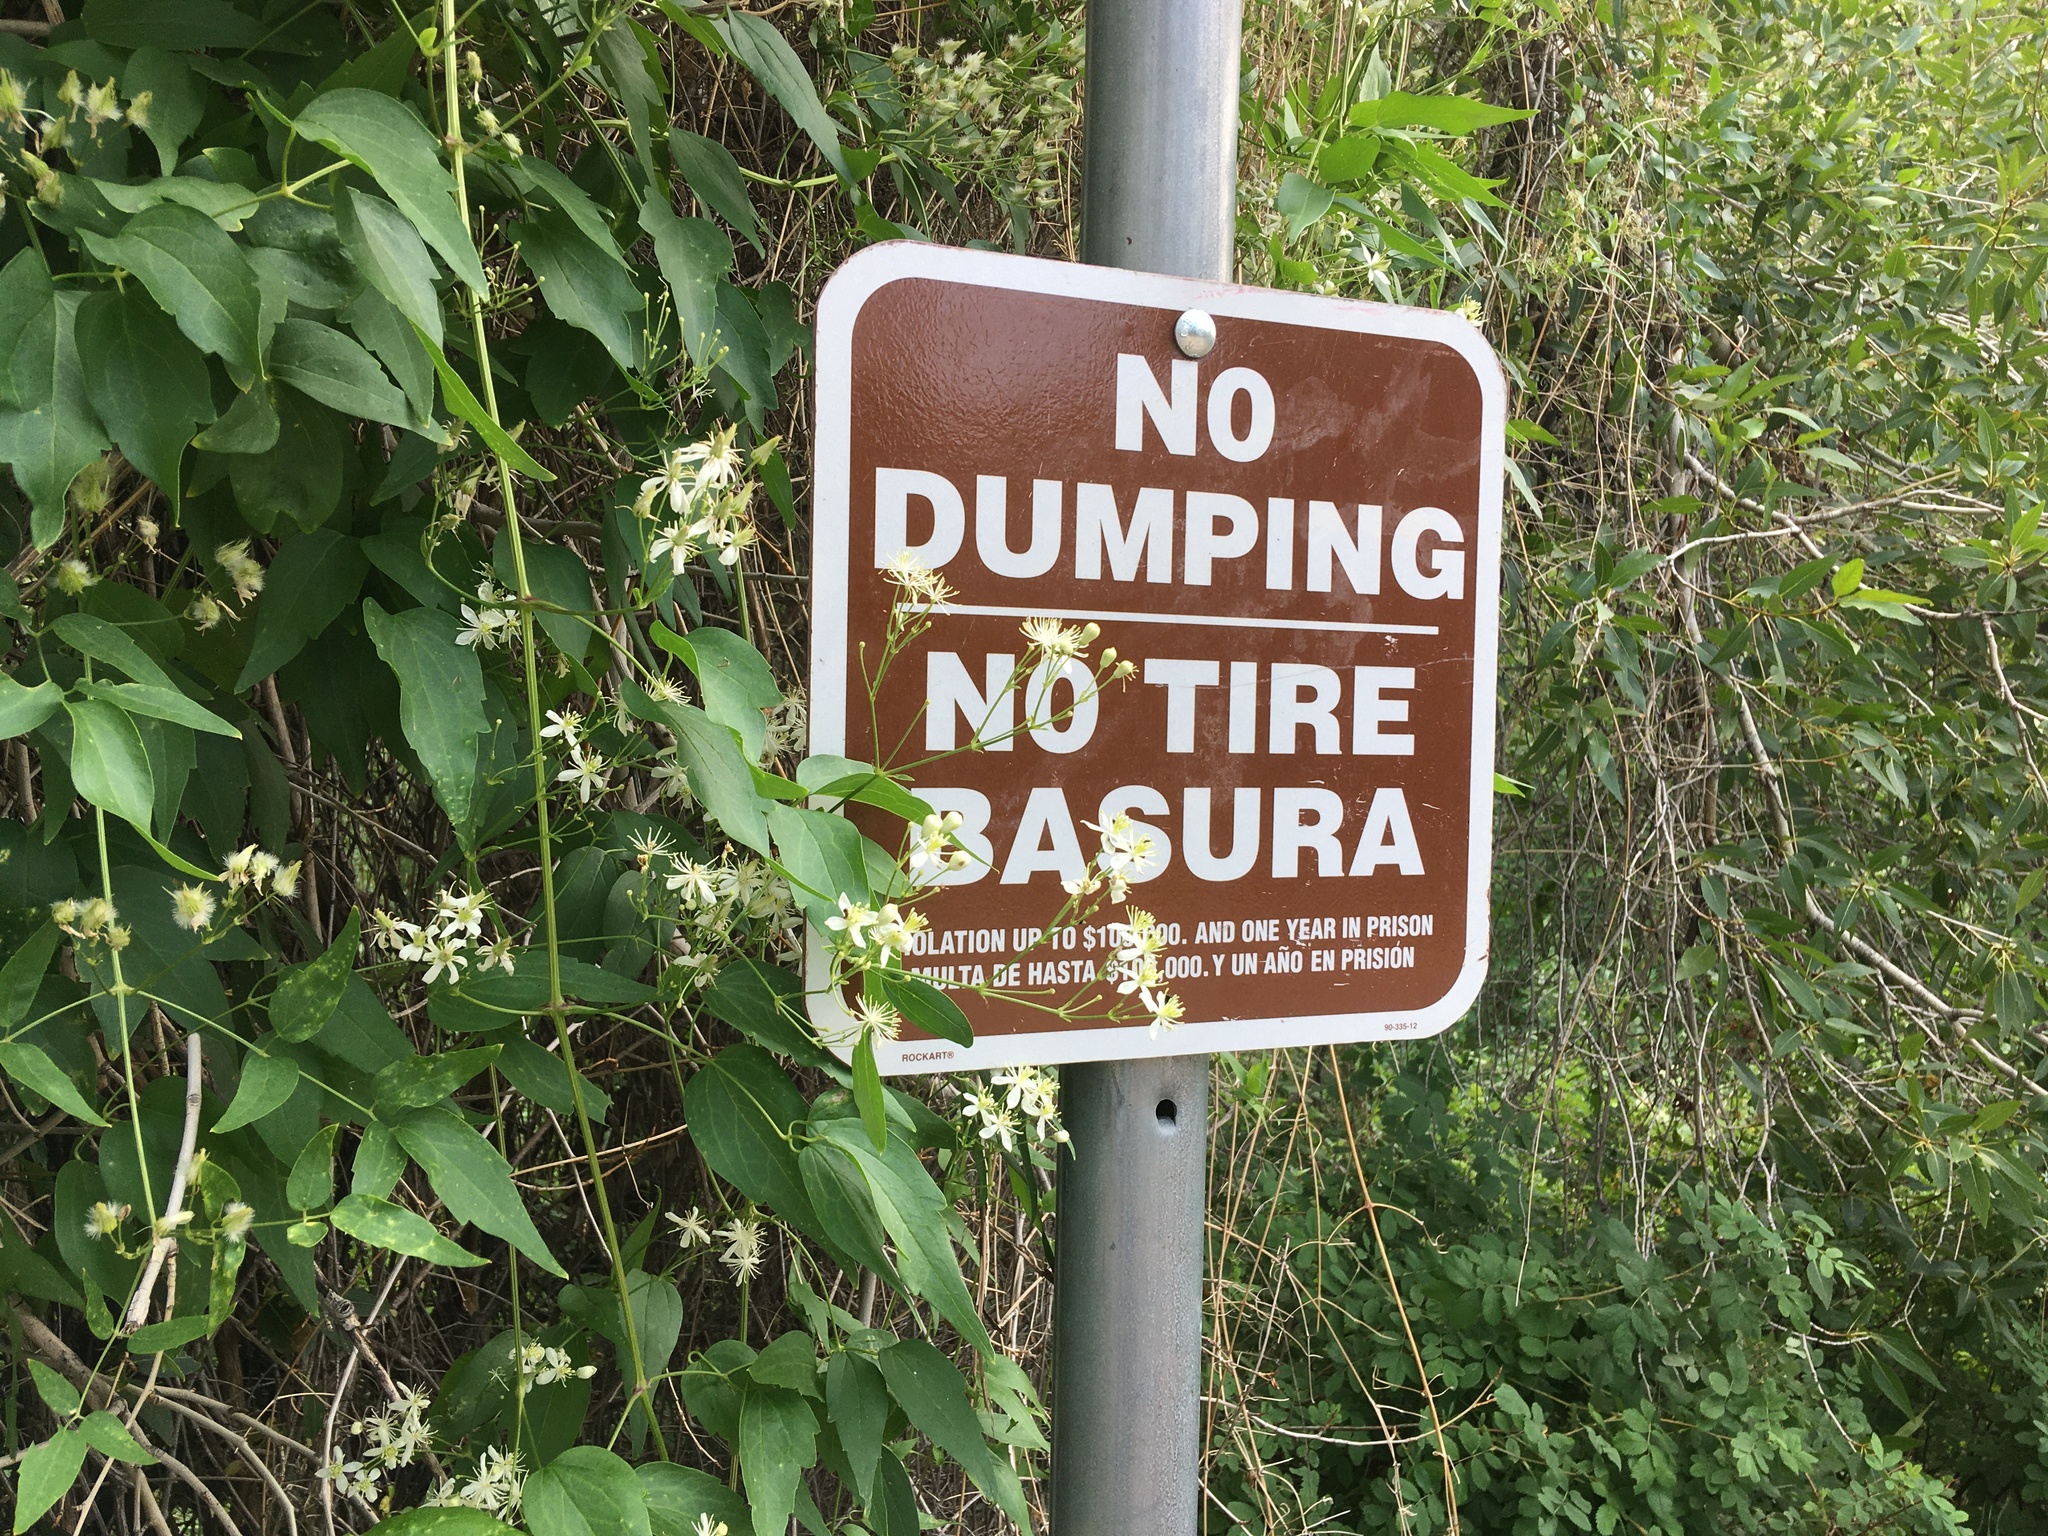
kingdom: Plantae
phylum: Tracheophyta
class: Magnoliopsida
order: Ranunculales
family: Ranunculaceae
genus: Clematis
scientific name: Clematis ligusticifolia
